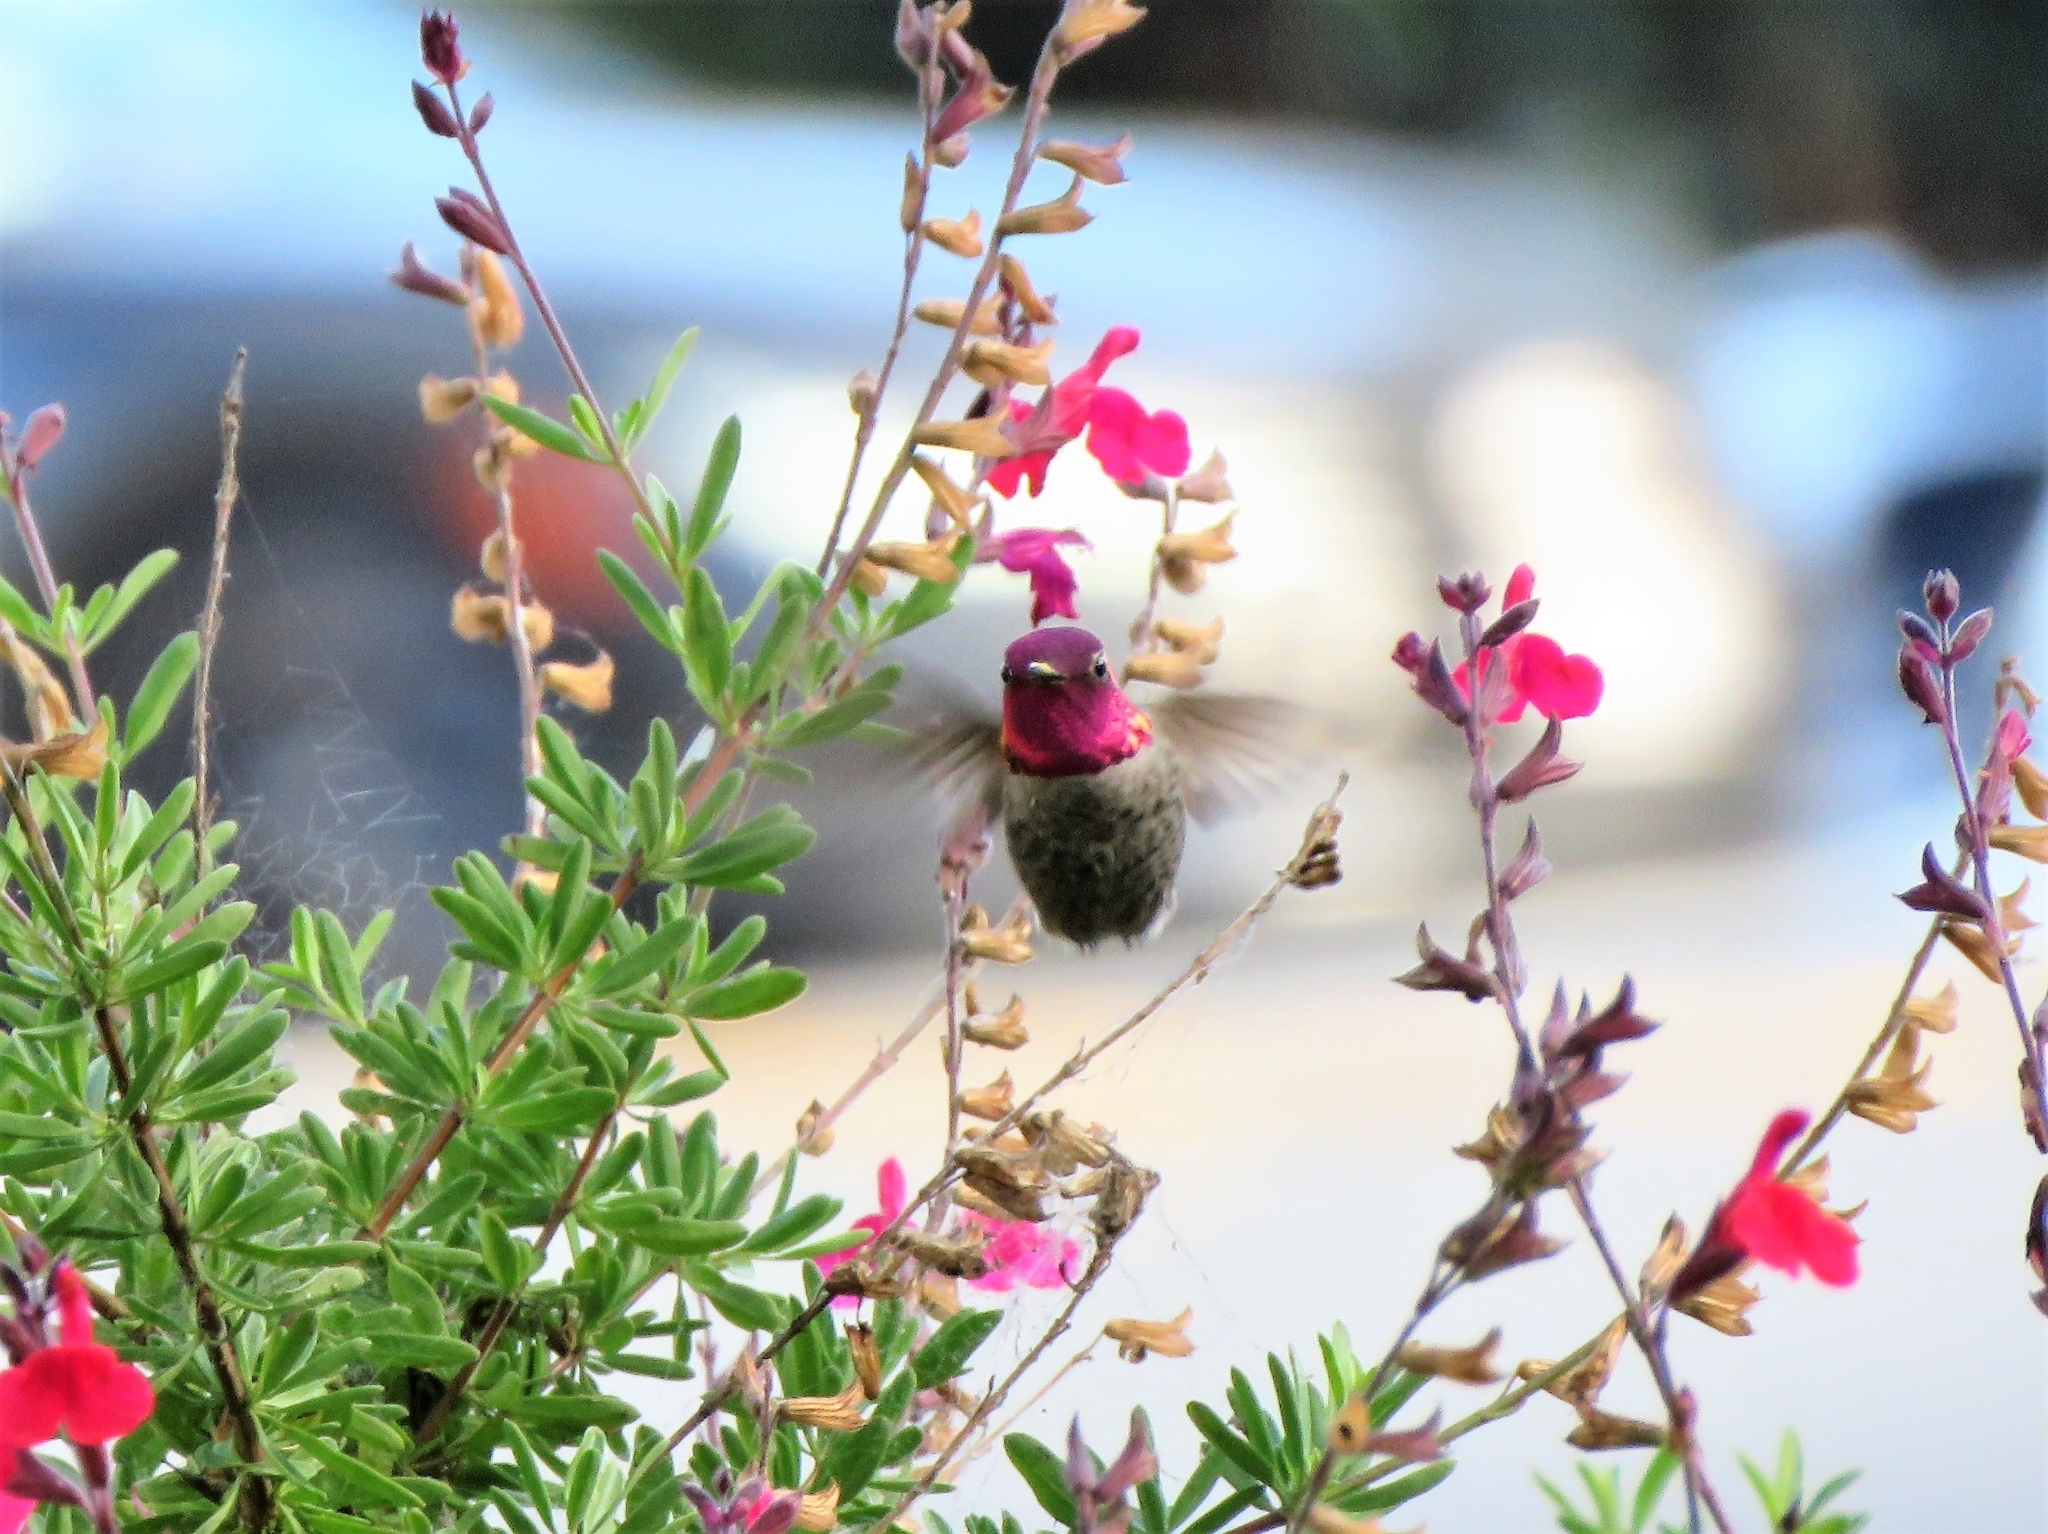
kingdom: Animalia
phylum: Chordata
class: Aves
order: Apodiformes
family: Trochilidae
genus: Calypte
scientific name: Calypte anna
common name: Anna's hummingbird
